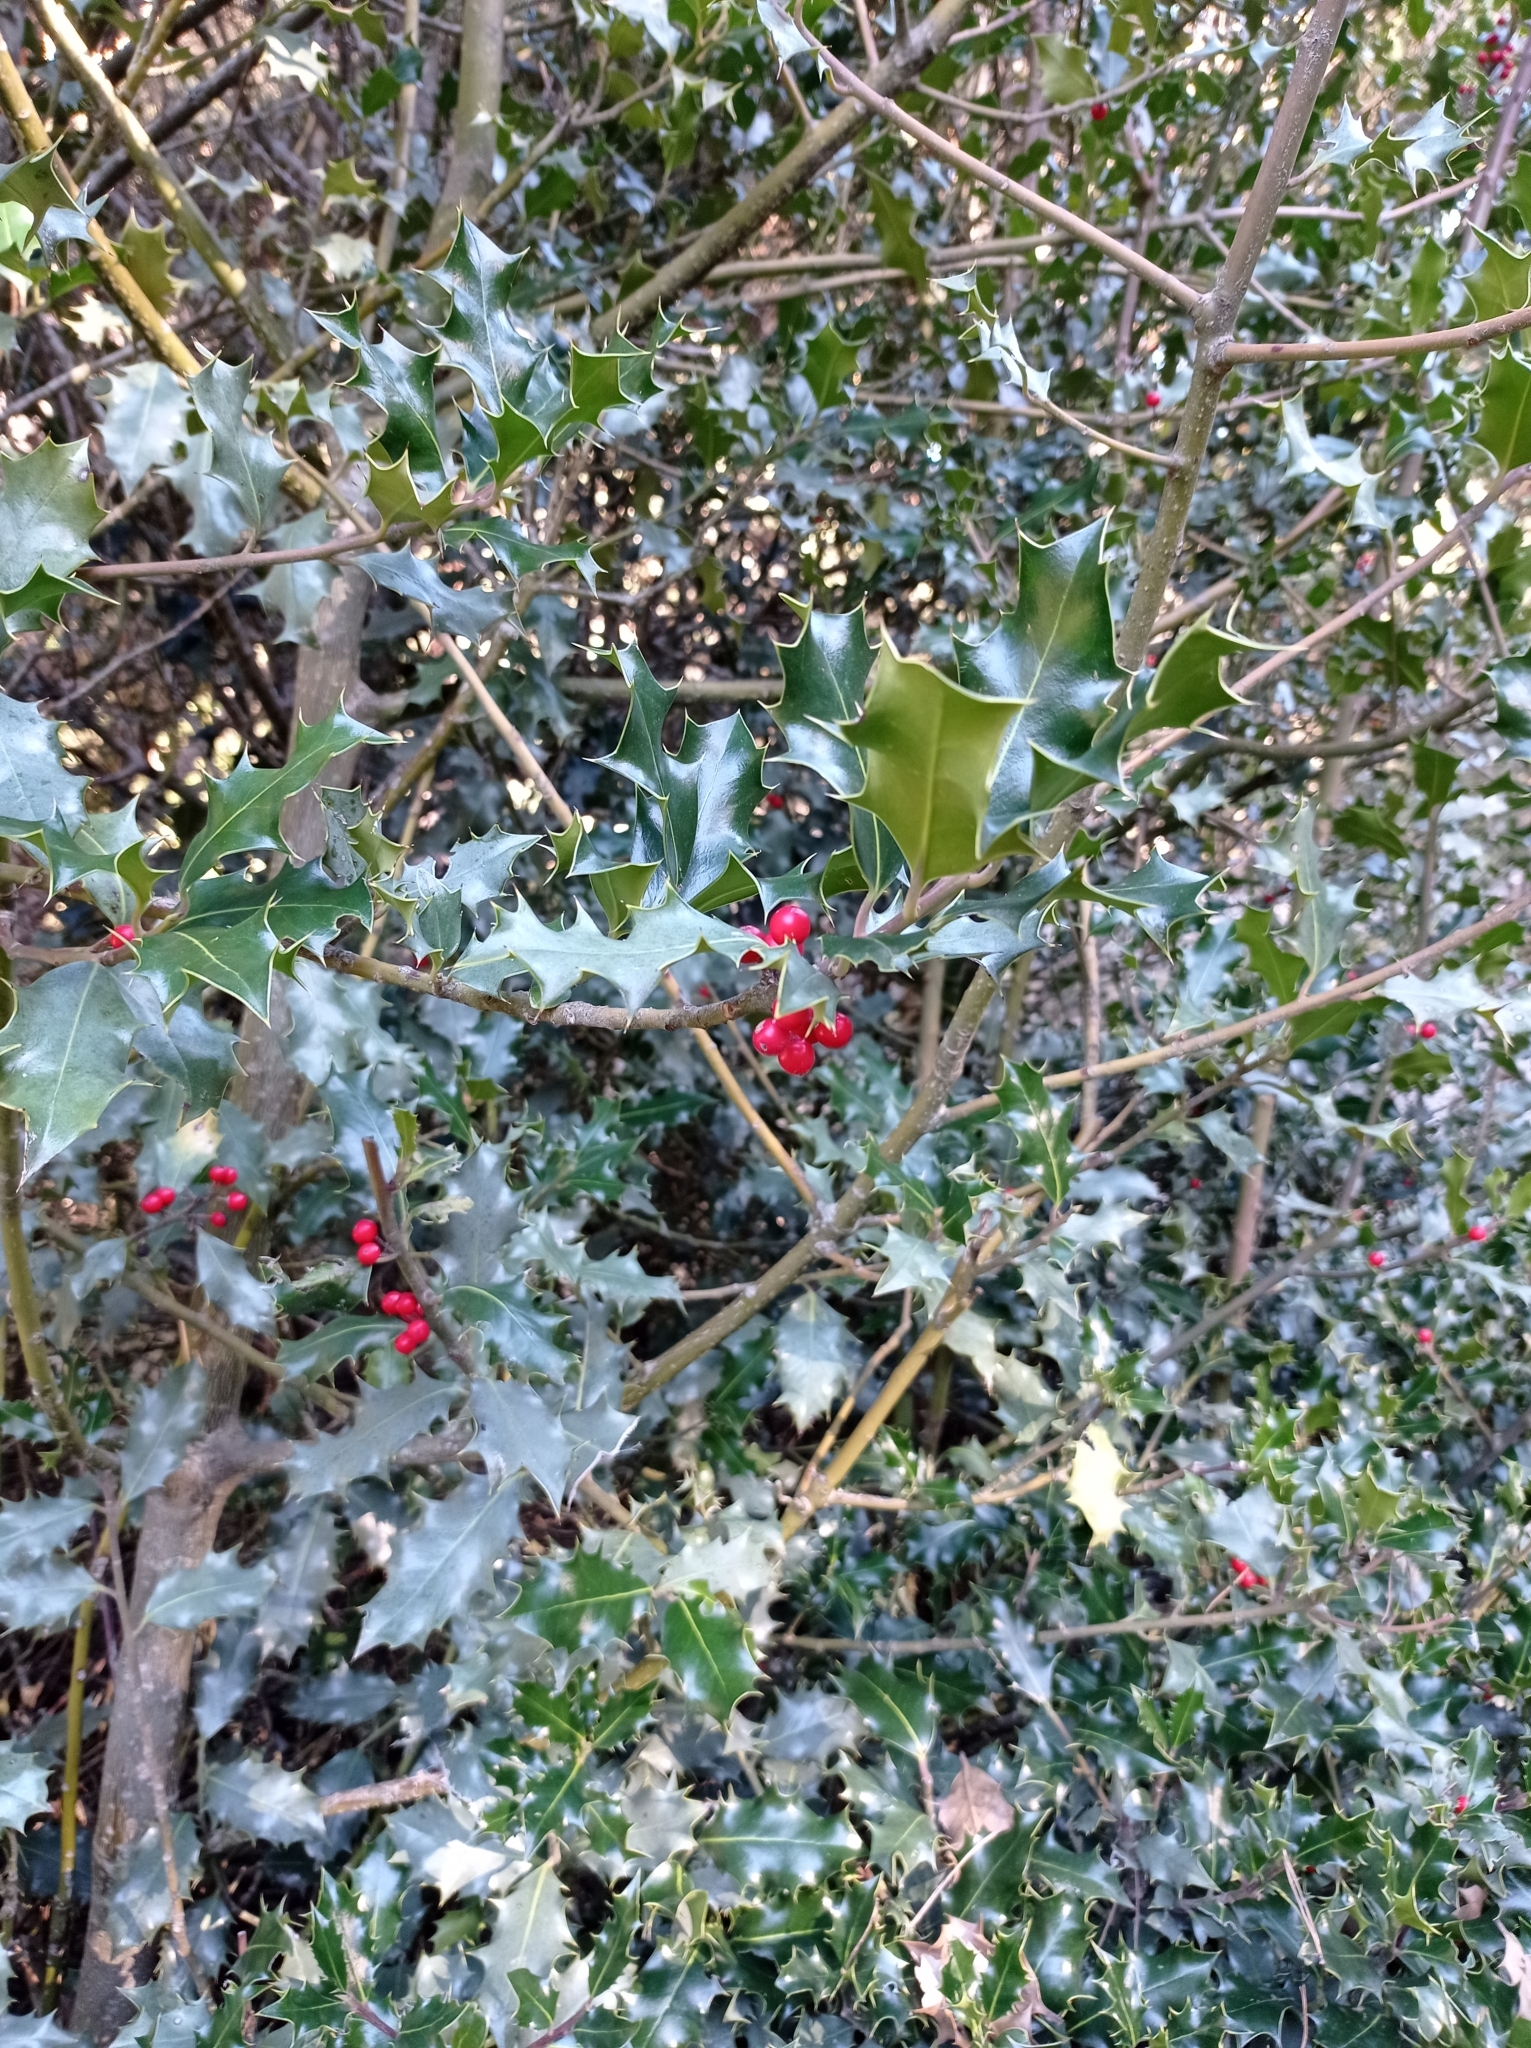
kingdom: Plantae
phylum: Tracheophyta
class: Magnoliopsida
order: Aquifoliales
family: Aquifoliaceae
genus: Ilex
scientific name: Ilex aquifolium
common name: English holly
